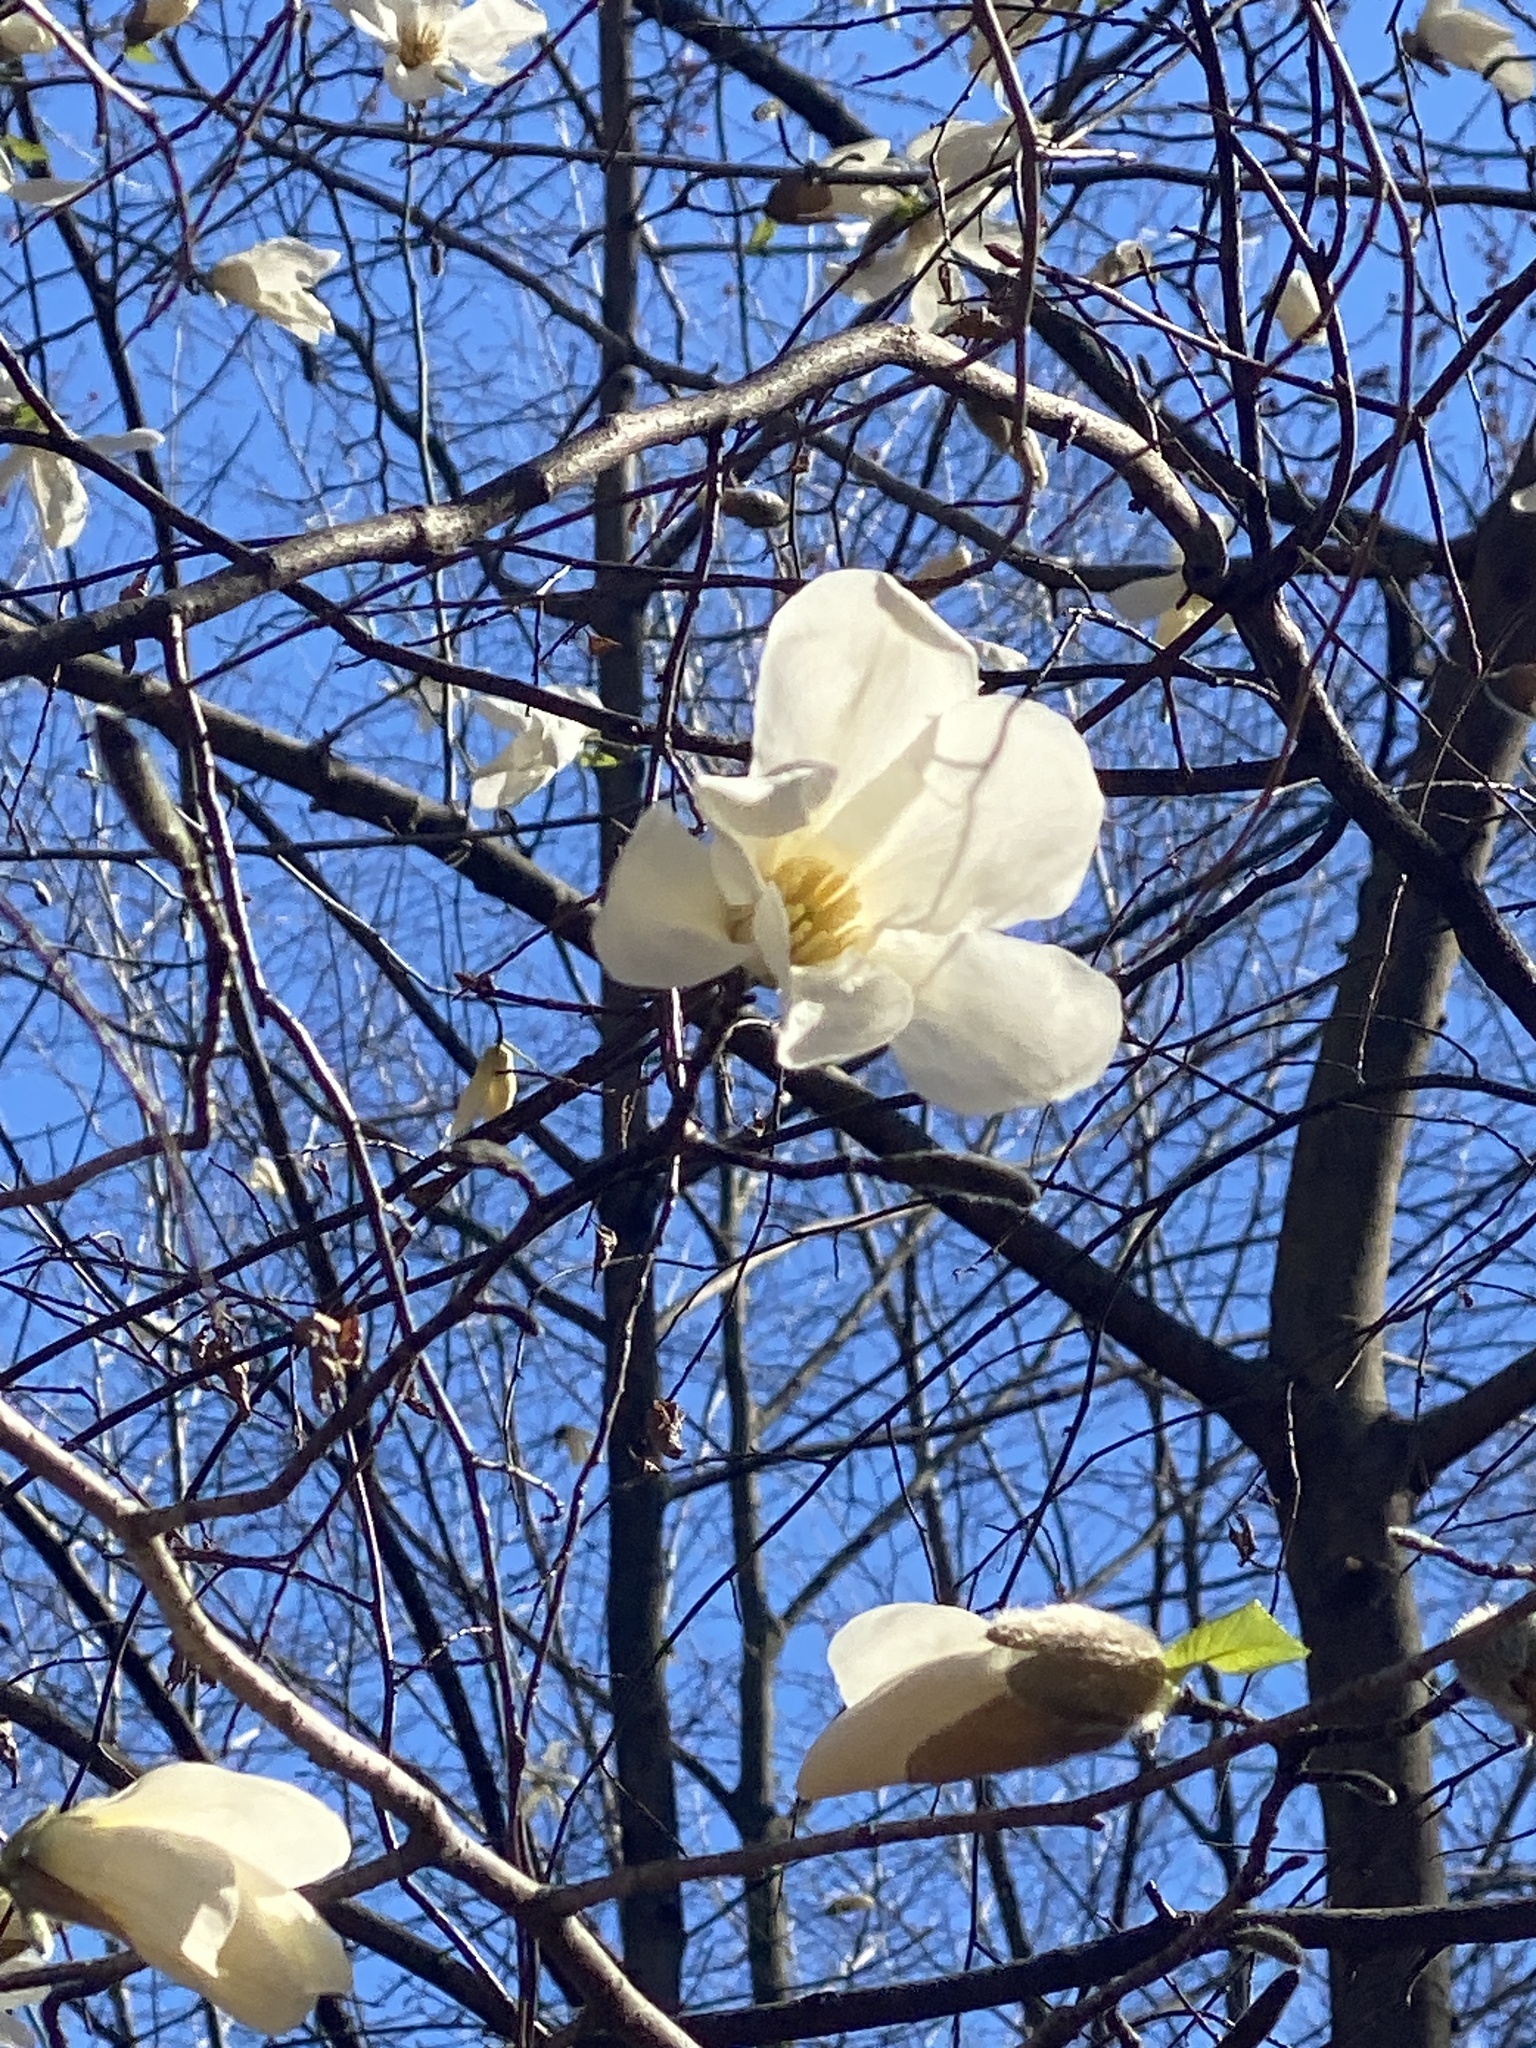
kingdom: Plantae
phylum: Tracheophyta
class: Magnoliopsida
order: Magnoliales
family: Magnoliaceae
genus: Magnolia
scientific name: Magnolia kobus
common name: Kobus magnolia
